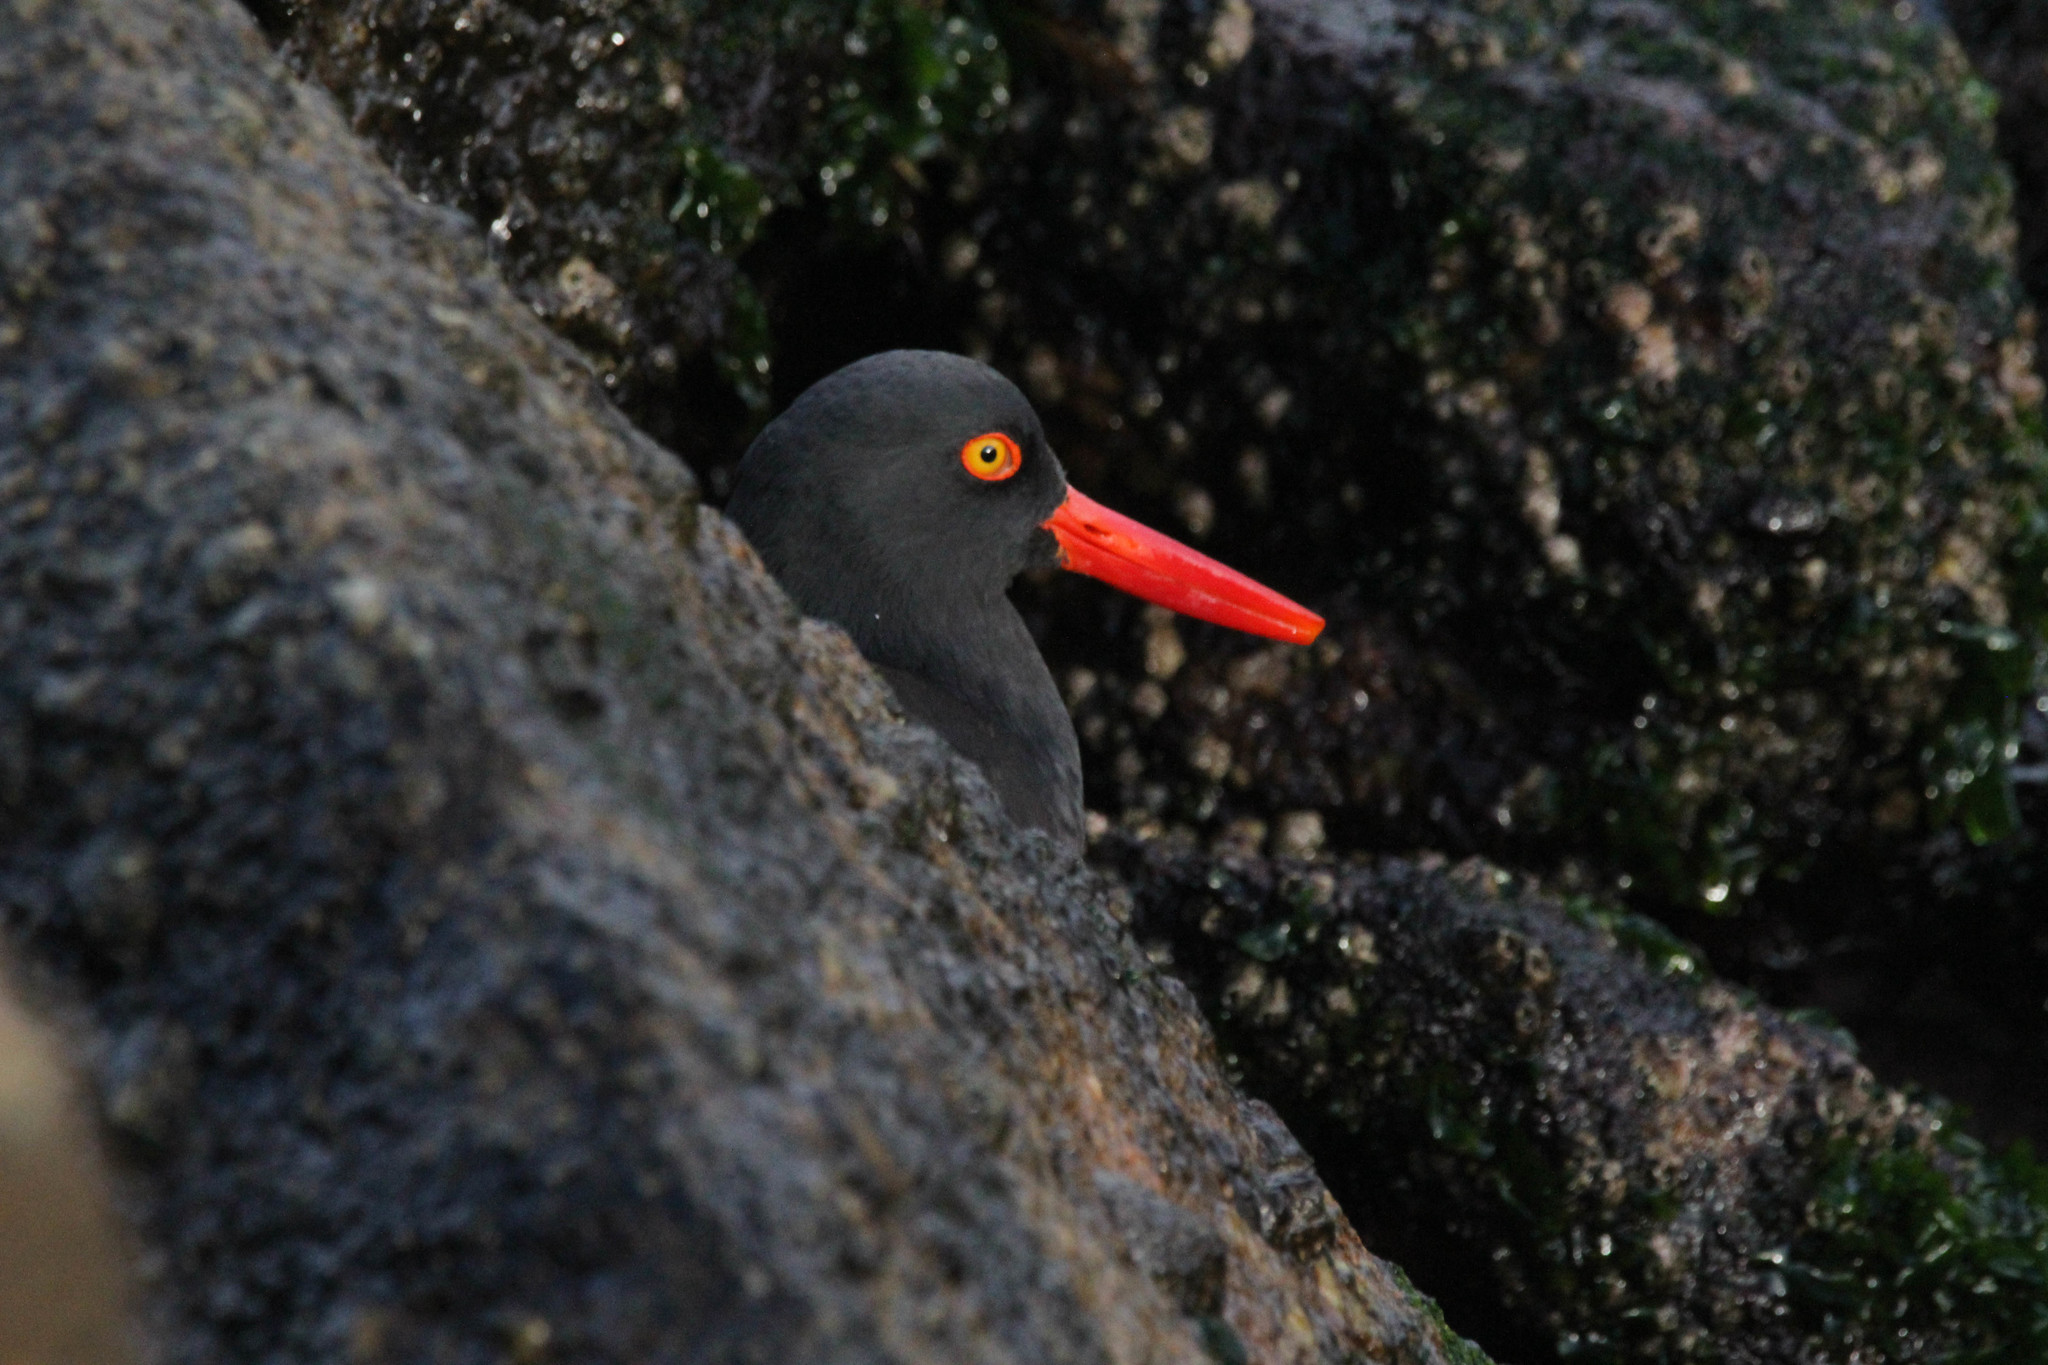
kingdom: Animalia
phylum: Chordata
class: Aves
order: Charadriiformes
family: Haematopodidae
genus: Haematopus
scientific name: Haematopus bachmani
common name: Black oystercatcher
